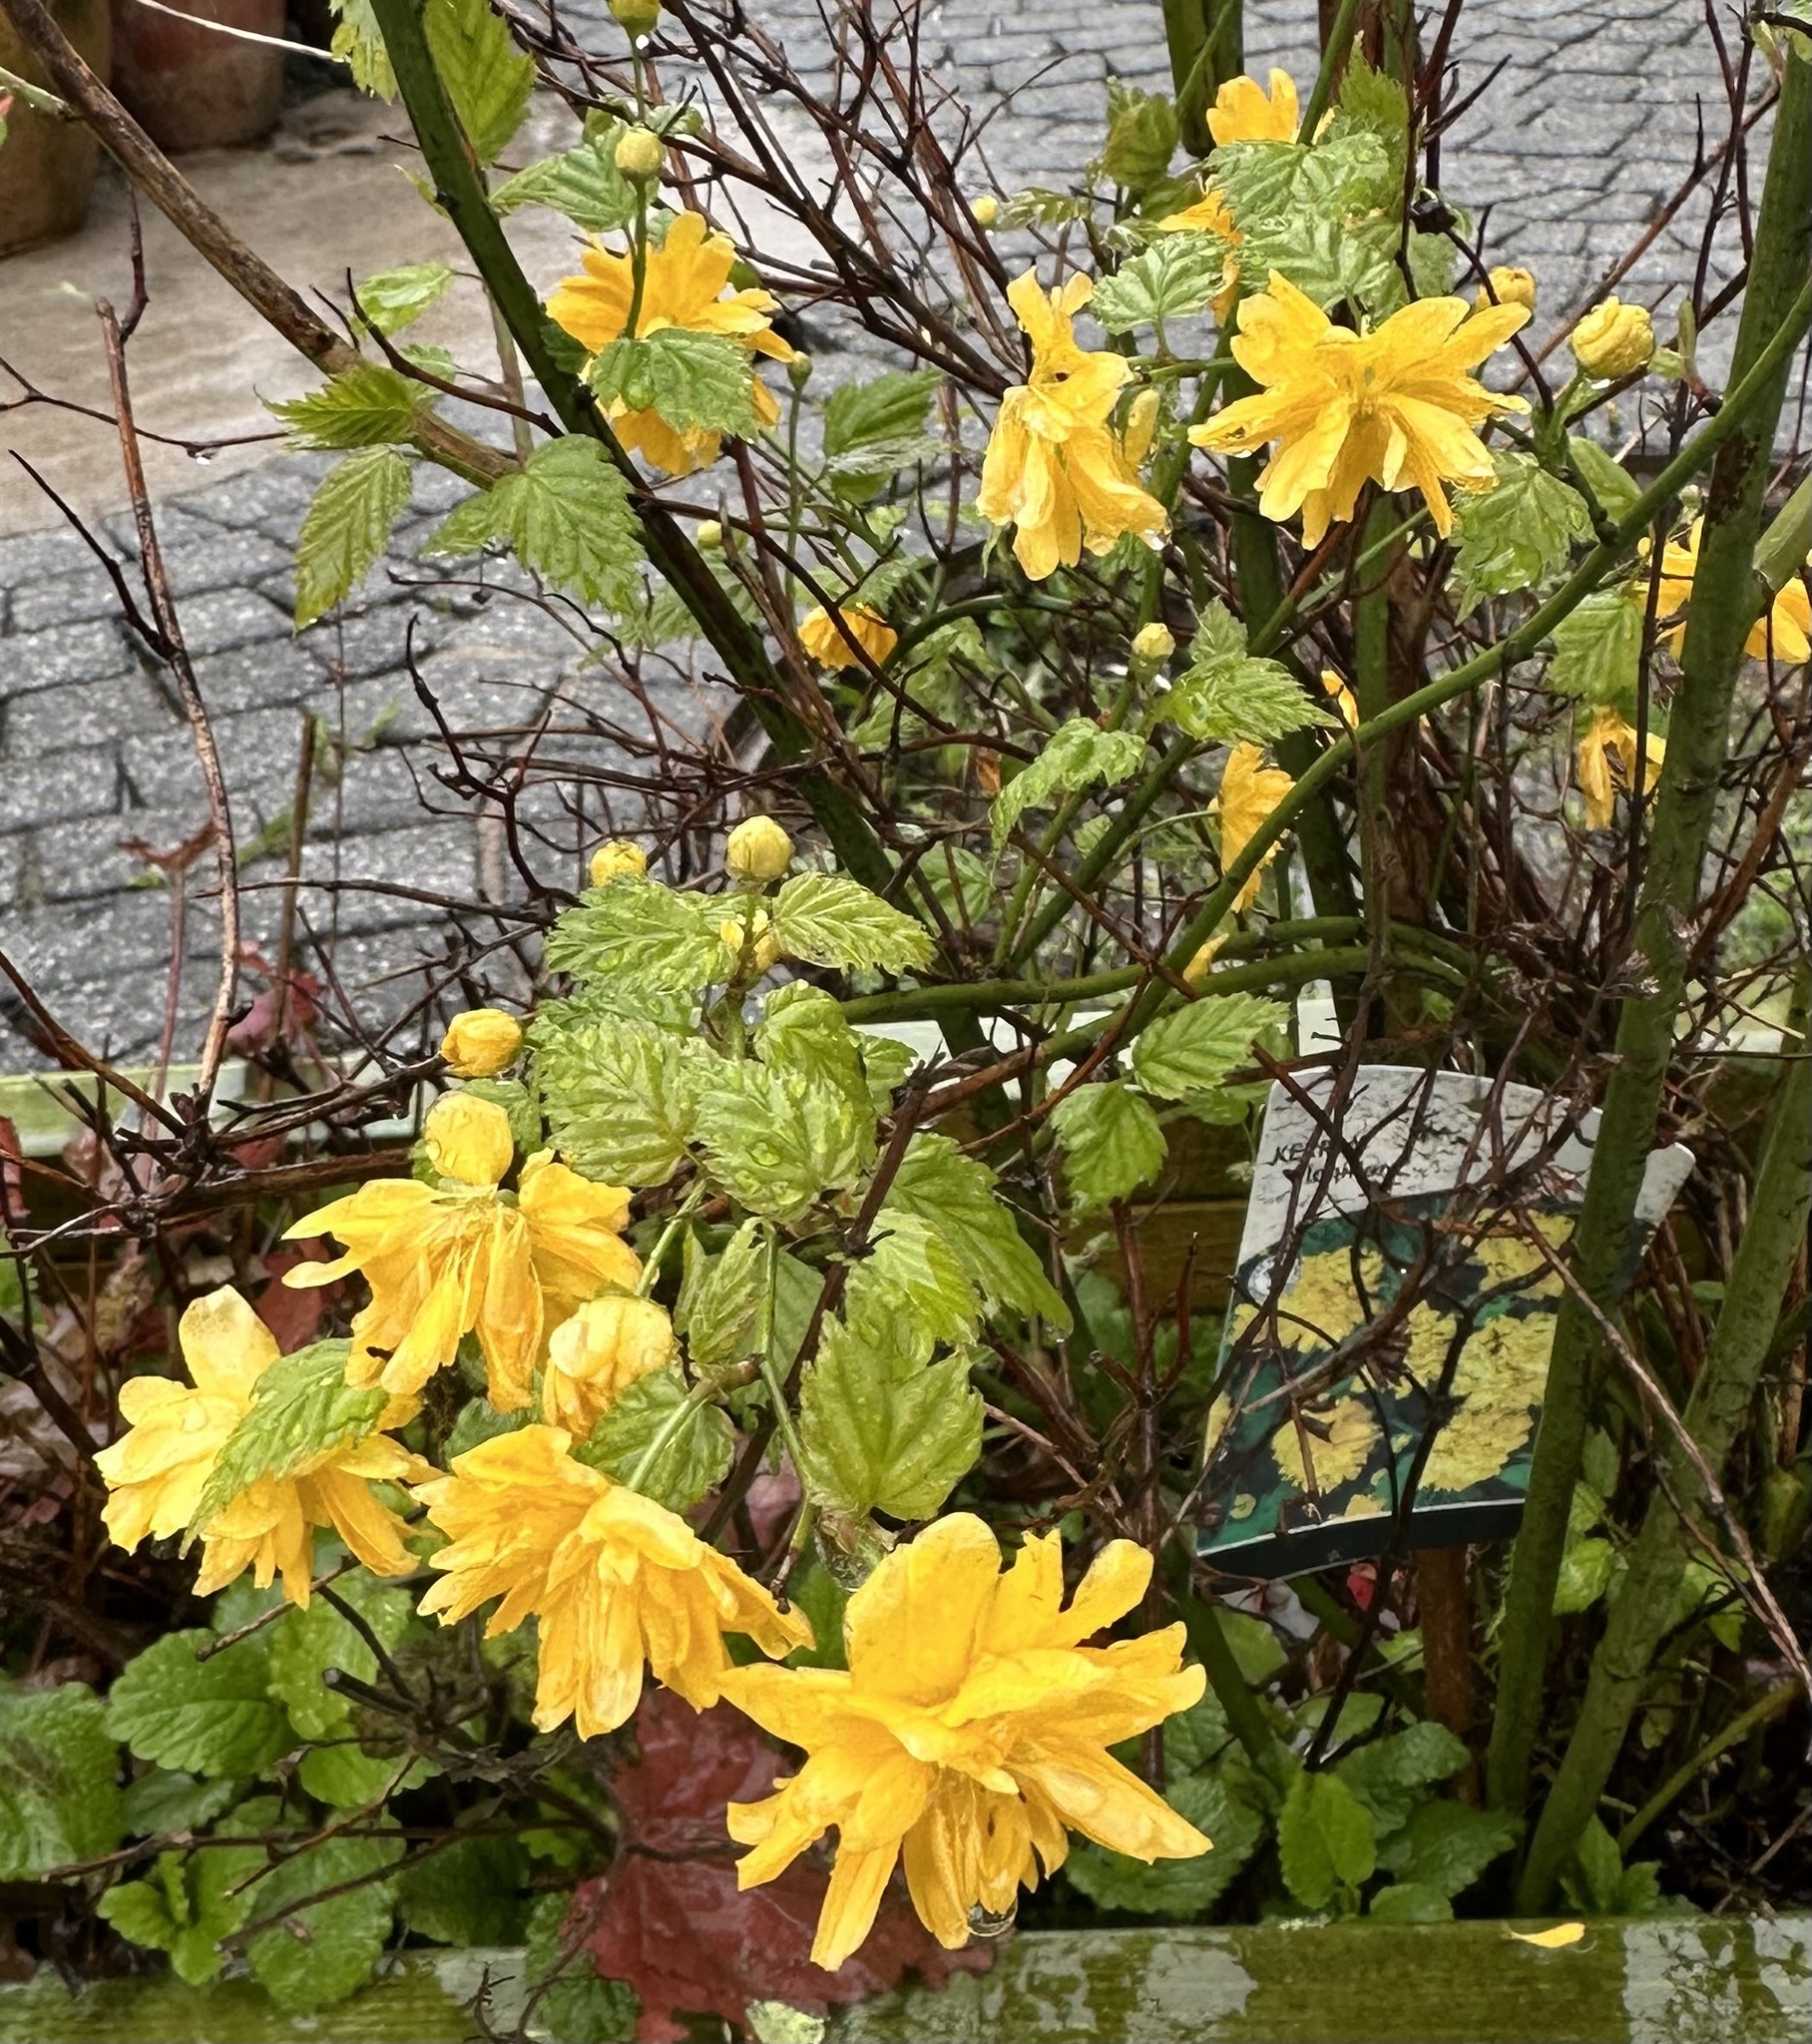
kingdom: Plantae
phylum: Tracheophyta
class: Magnoliopsida
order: Rosales
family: Rosaceae
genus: Kerria
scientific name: Kerria japonica
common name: Japanese kerria
